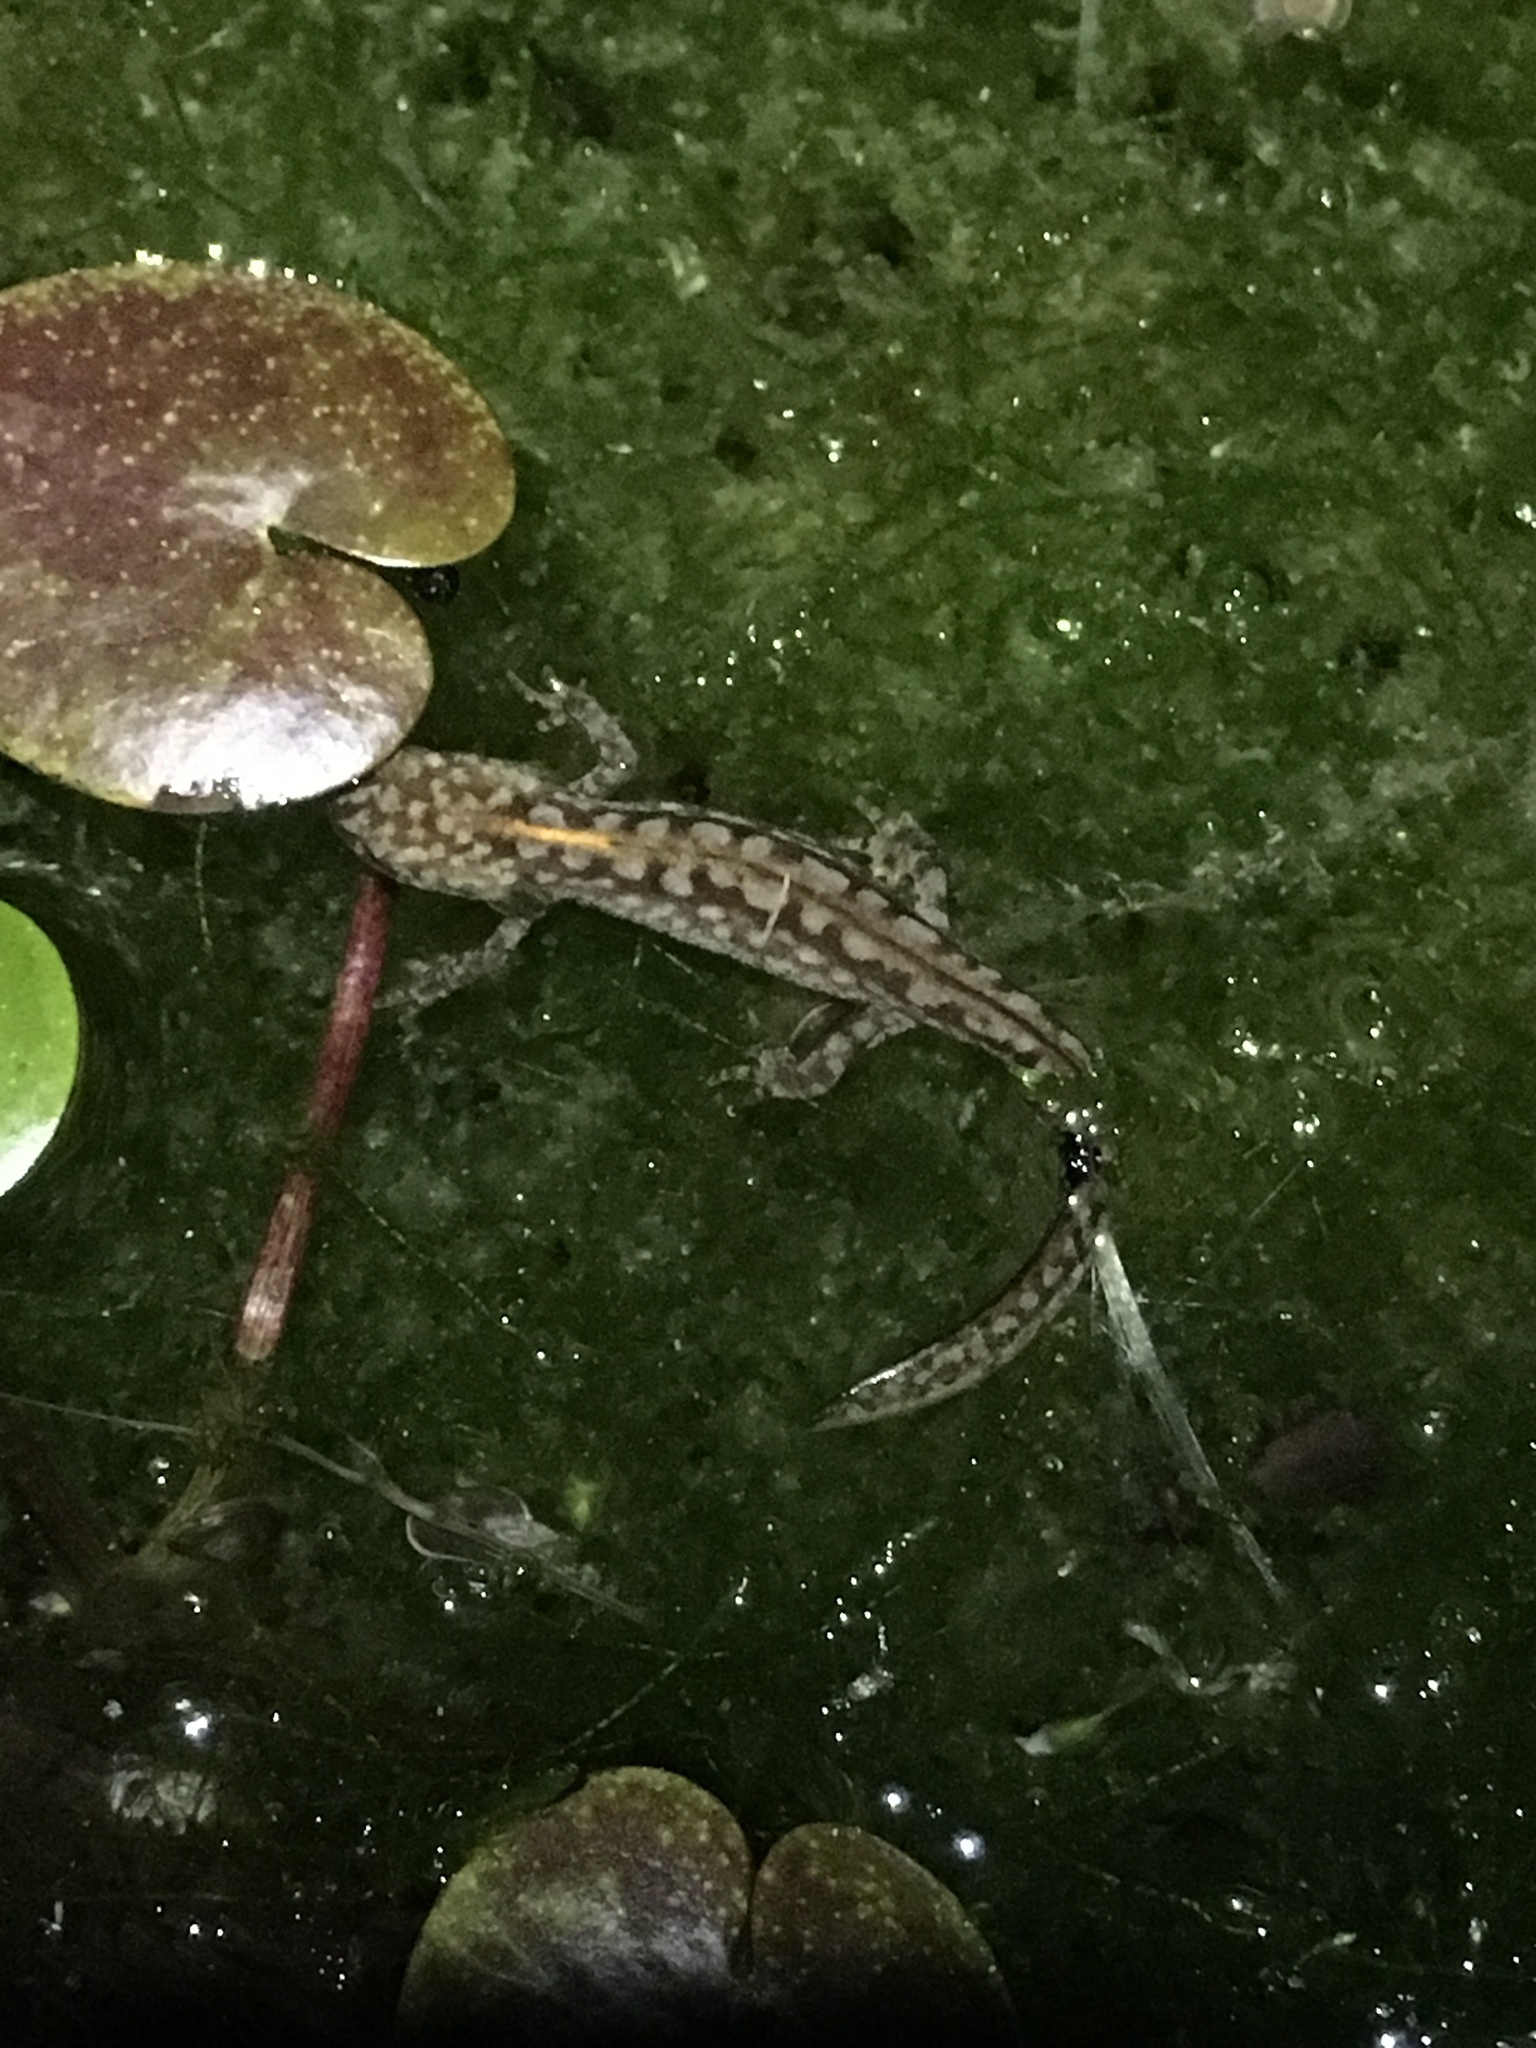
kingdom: Animalia
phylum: Chordata
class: Amphibia
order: Caudata
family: Salamandridae
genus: Ichthyosaura
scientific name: Ichthyosaura alpestris
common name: Alpine newt
